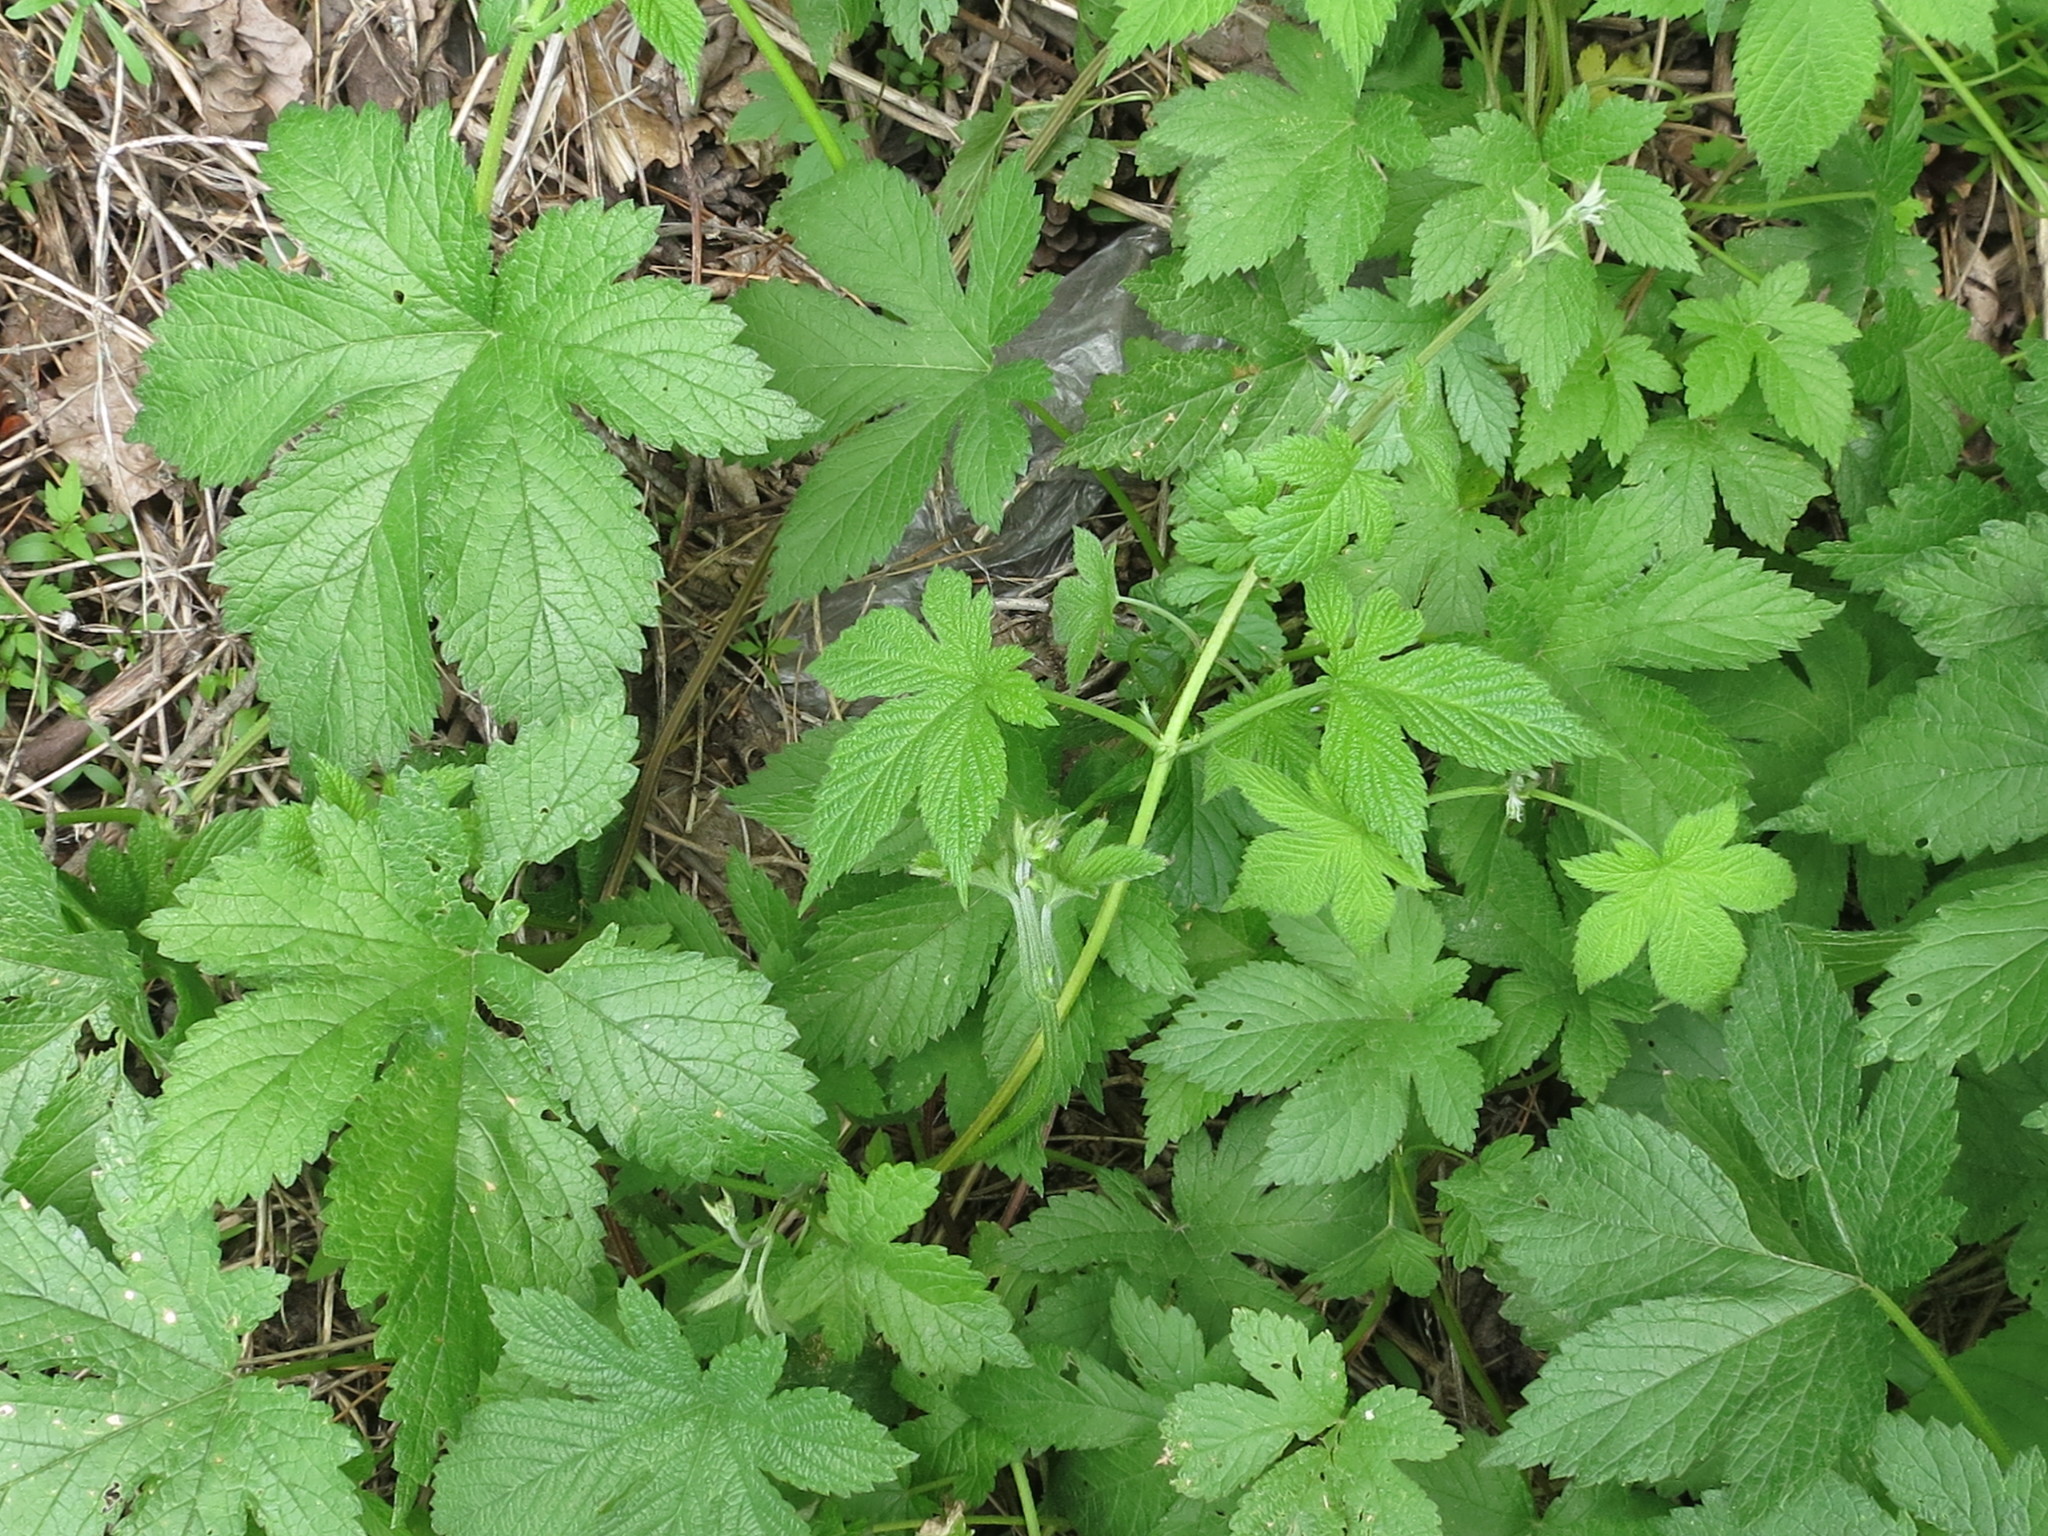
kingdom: Plantae
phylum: Tracheophyta
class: Magnoliopsida
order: Rosales
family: Cannabaceae
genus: Humulus
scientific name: Humulus scandens
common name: Japanese hop
